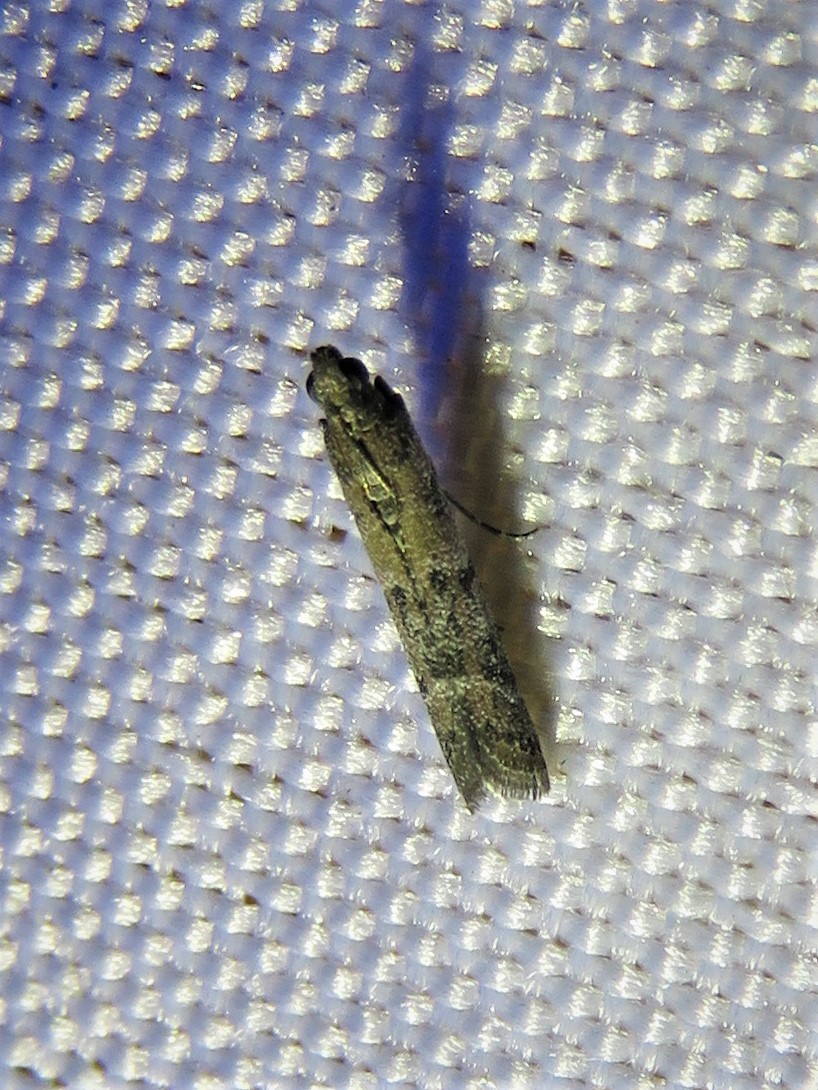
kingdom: Animalia
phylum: Arthropoda
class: Insecta
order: Lepidoptera
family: Pyralidae
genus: Ephestiodes
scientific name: Ephestiodes gilvescentella
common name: Moth
